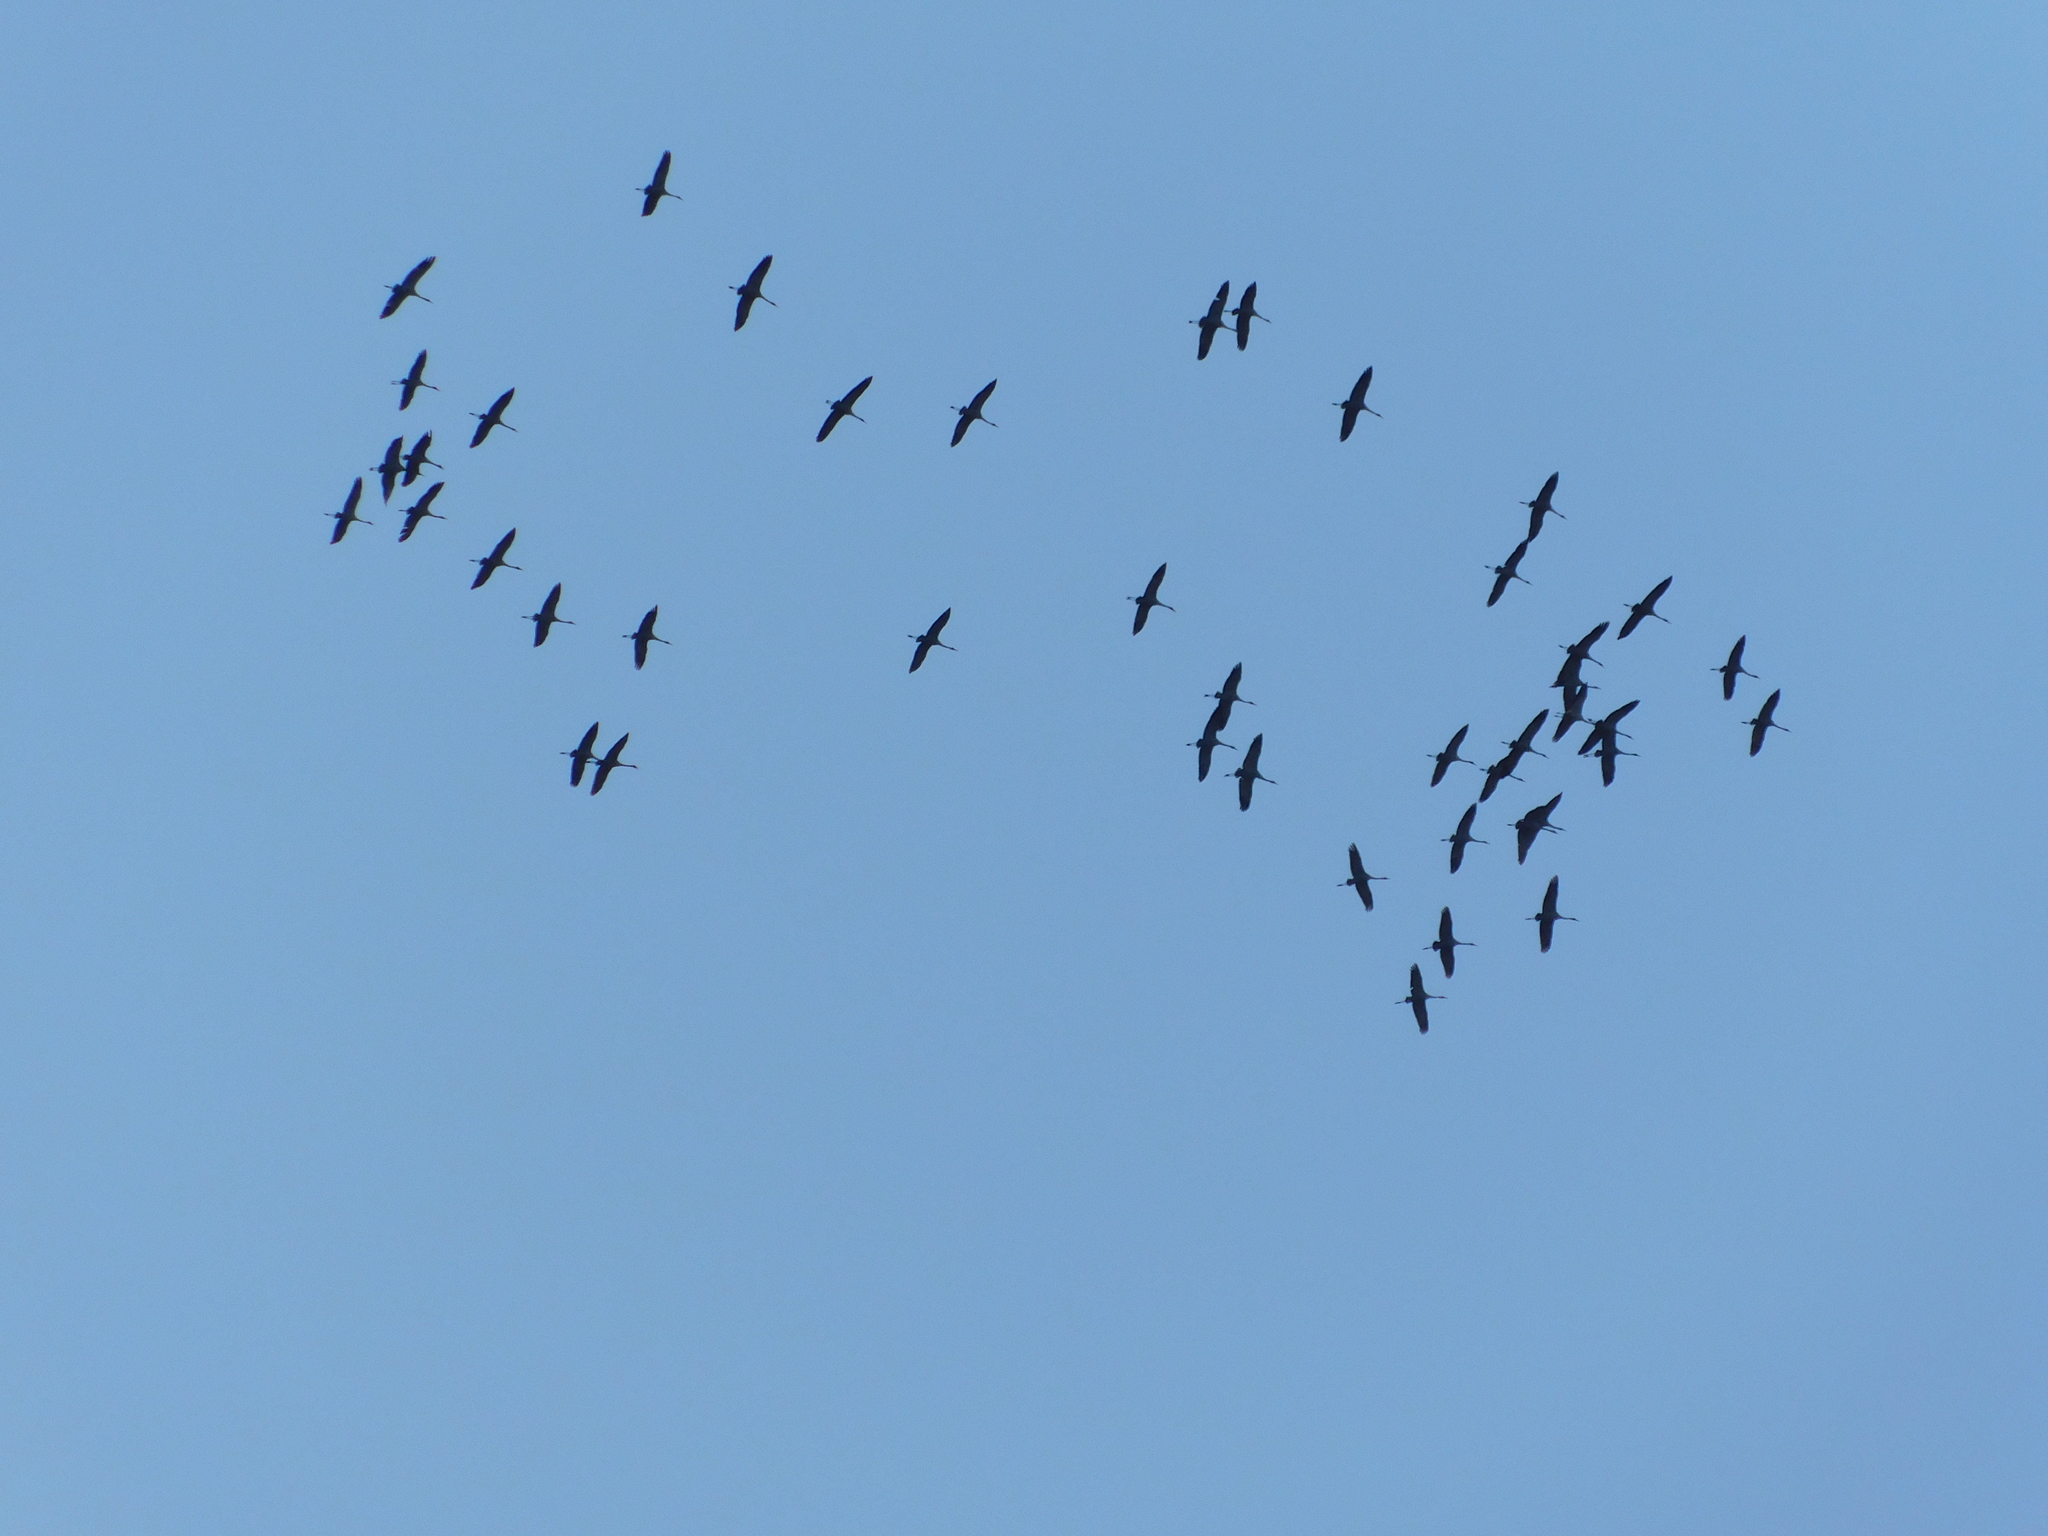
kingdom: Animalia
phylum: Chordata
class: Aves
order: Gruiformes
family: Gruidae
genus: Grus
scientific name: Grus grus
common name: Common crane
